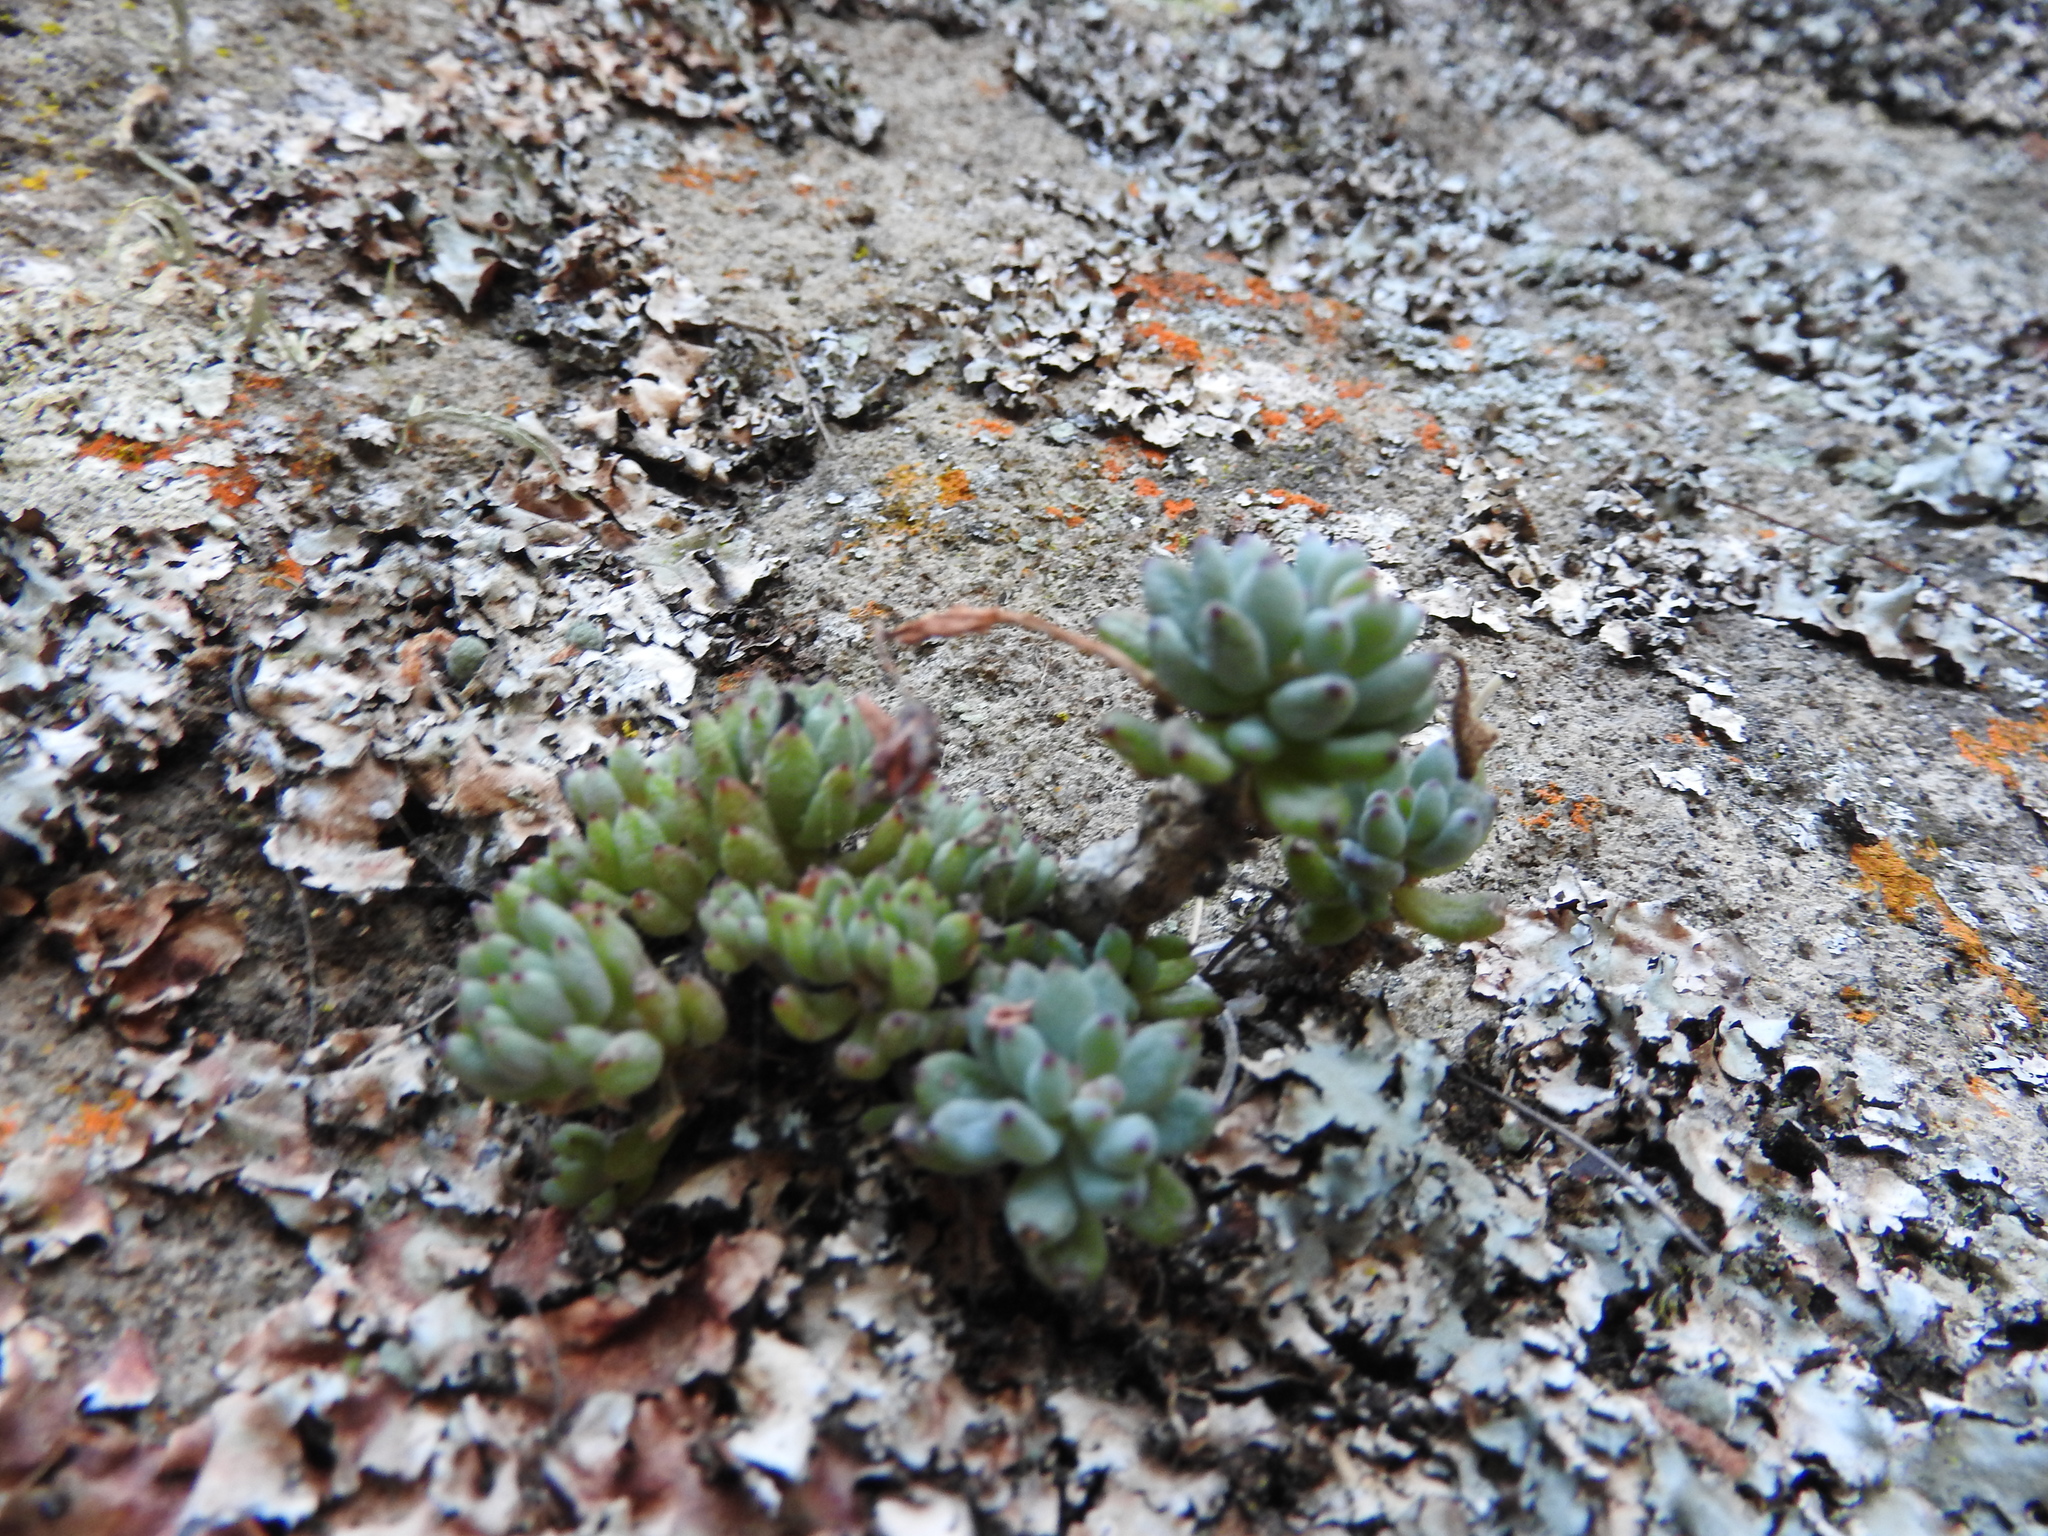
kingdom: Plantae
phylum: Tracheophyta
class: Magnoliopsida
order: Saxifragales
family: Crassulaceae
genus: Graptopetalum
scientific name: Graptopetalum pachyphyllum
